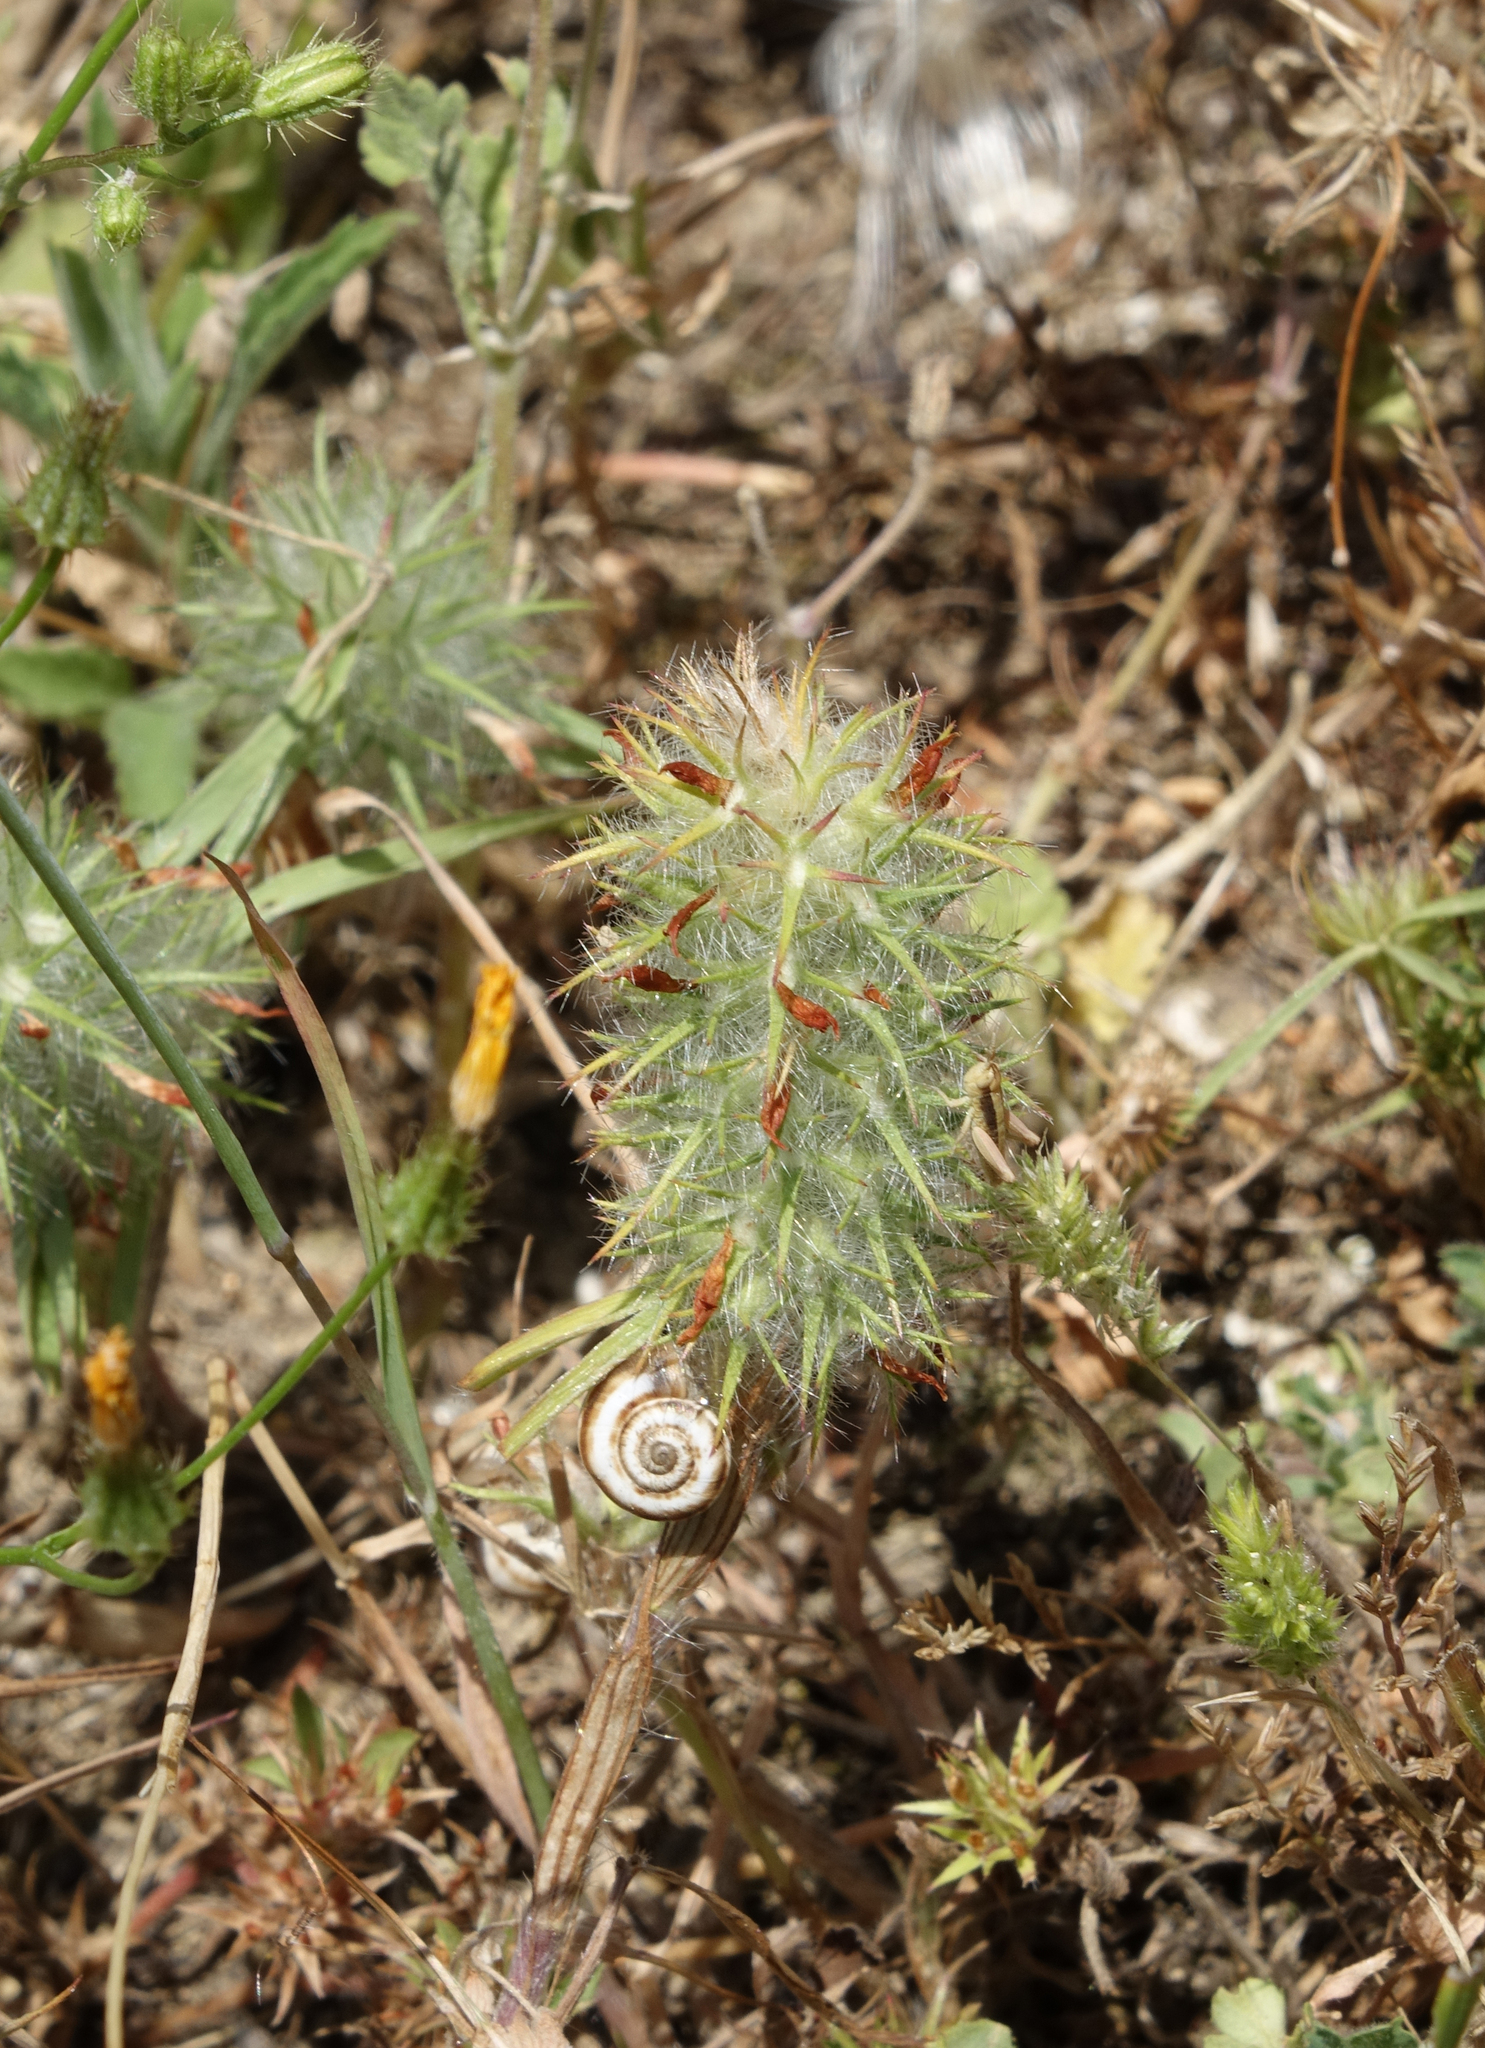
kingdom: Plantae
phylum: Tracheophyta
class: Magnoliopsida
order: Fabales
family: Fabaceae
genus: Trifolium
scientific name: Trifolium angustifolium
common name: Narrow clover
